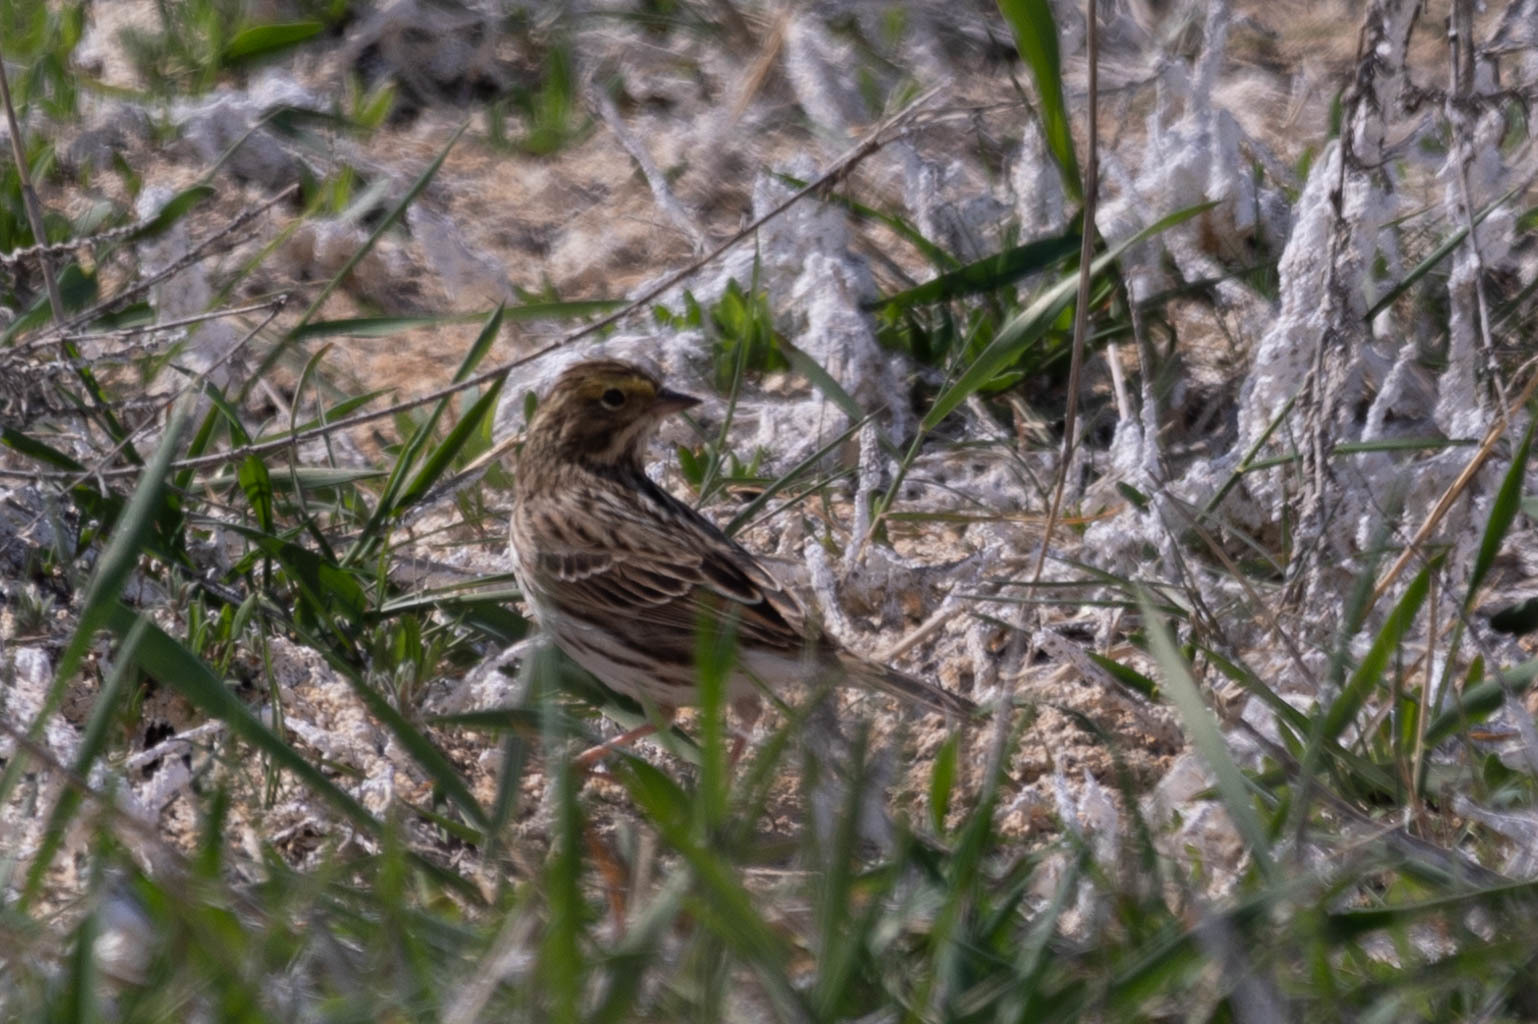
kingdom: Animalia
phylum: Chordata
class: Aves
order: Passeriformes
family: Passerellidae
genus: Passerculus
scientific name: Passerculus sandwichensis
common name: Savannah sparrow
